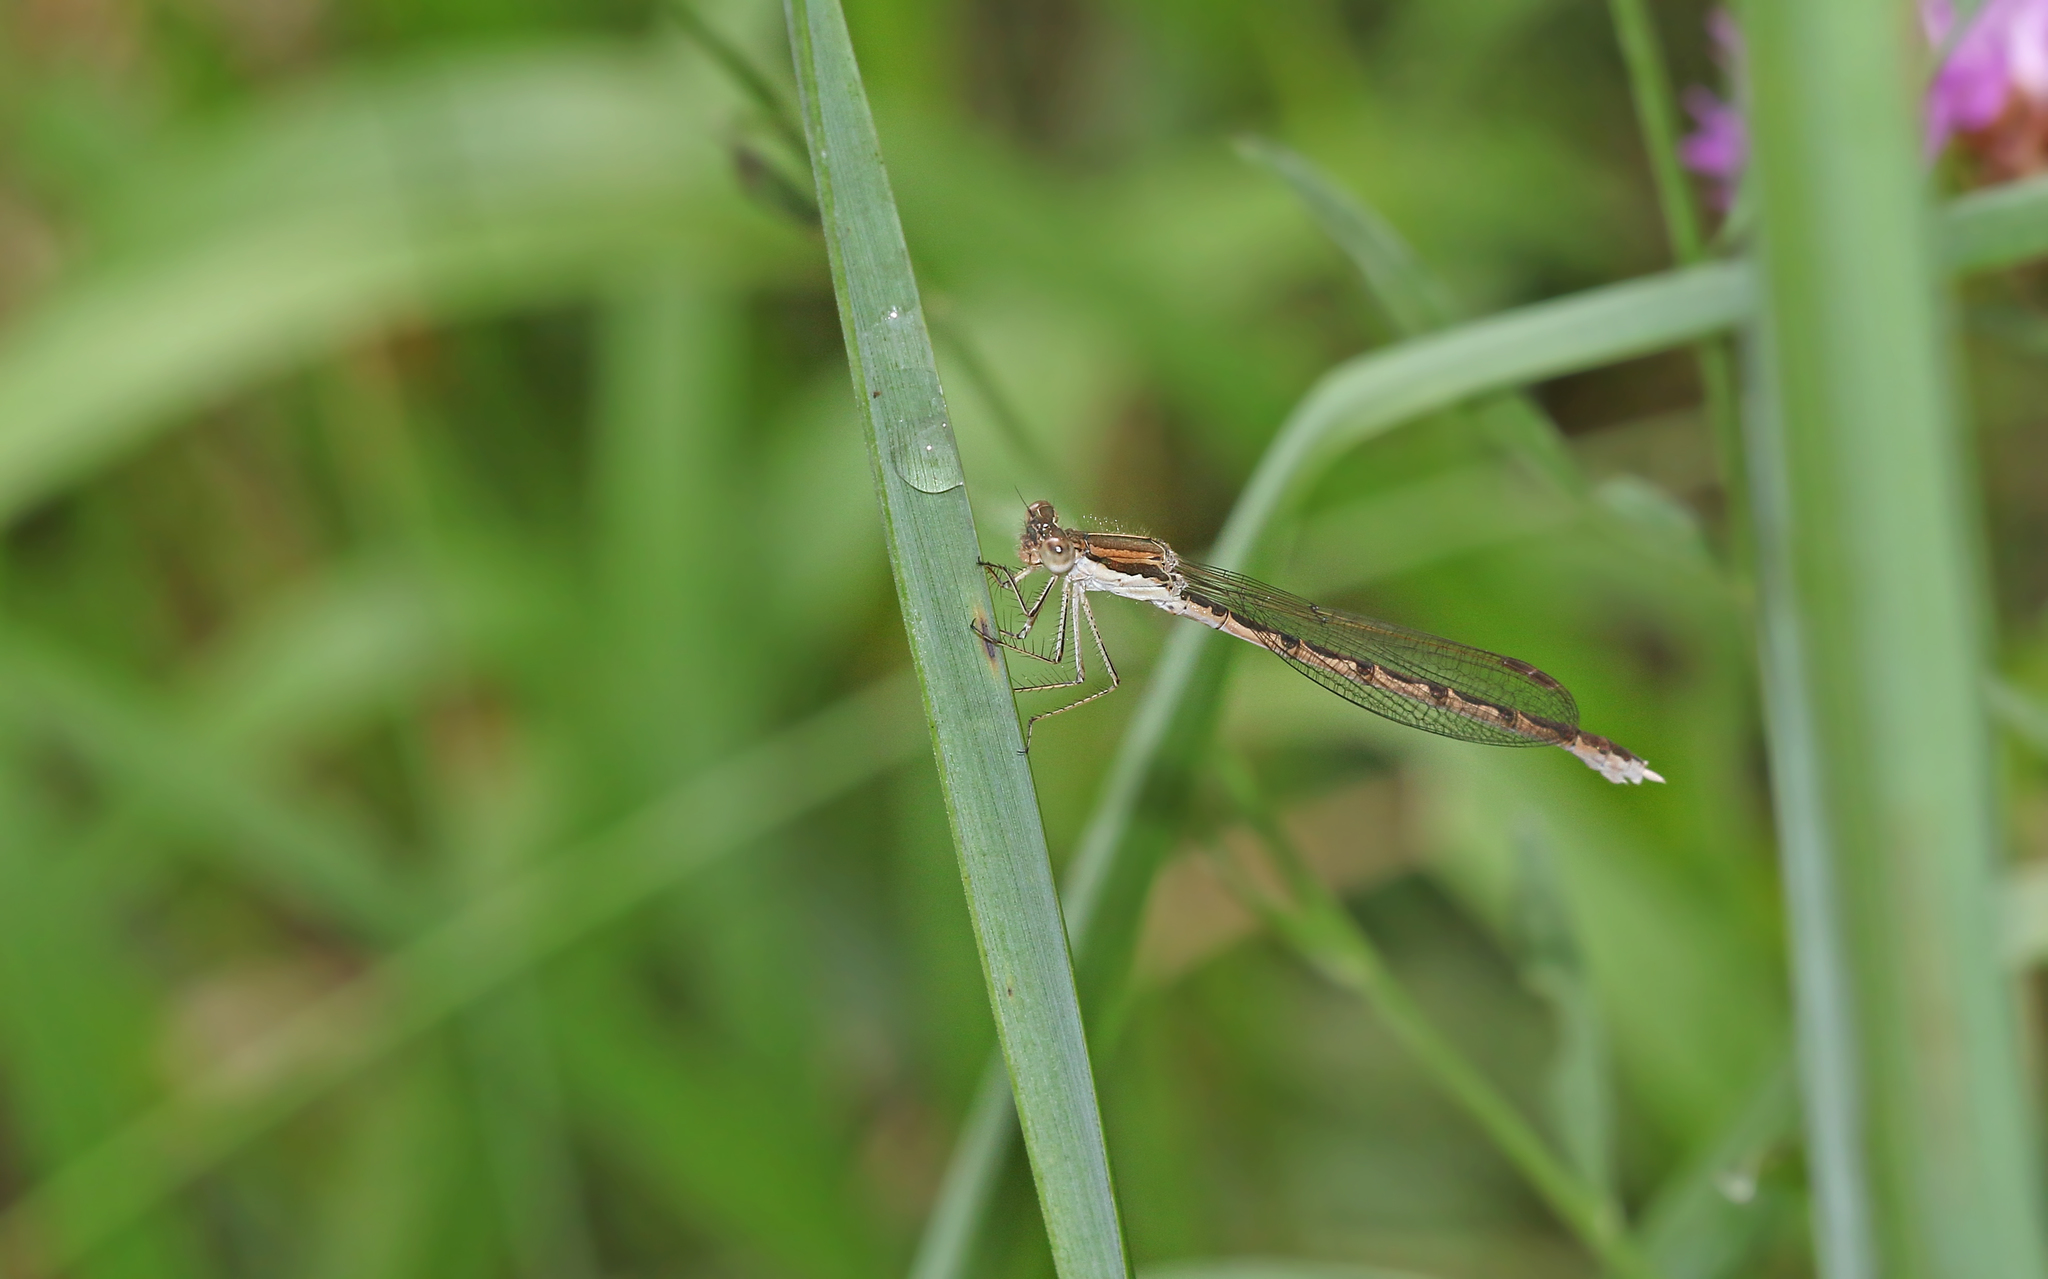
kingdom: Animalia
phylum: Arthropoda
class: Insecta
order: Odonata
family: Lestidae
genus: Sympecma
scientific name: Sympecma fusca
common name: Common winter damsel
